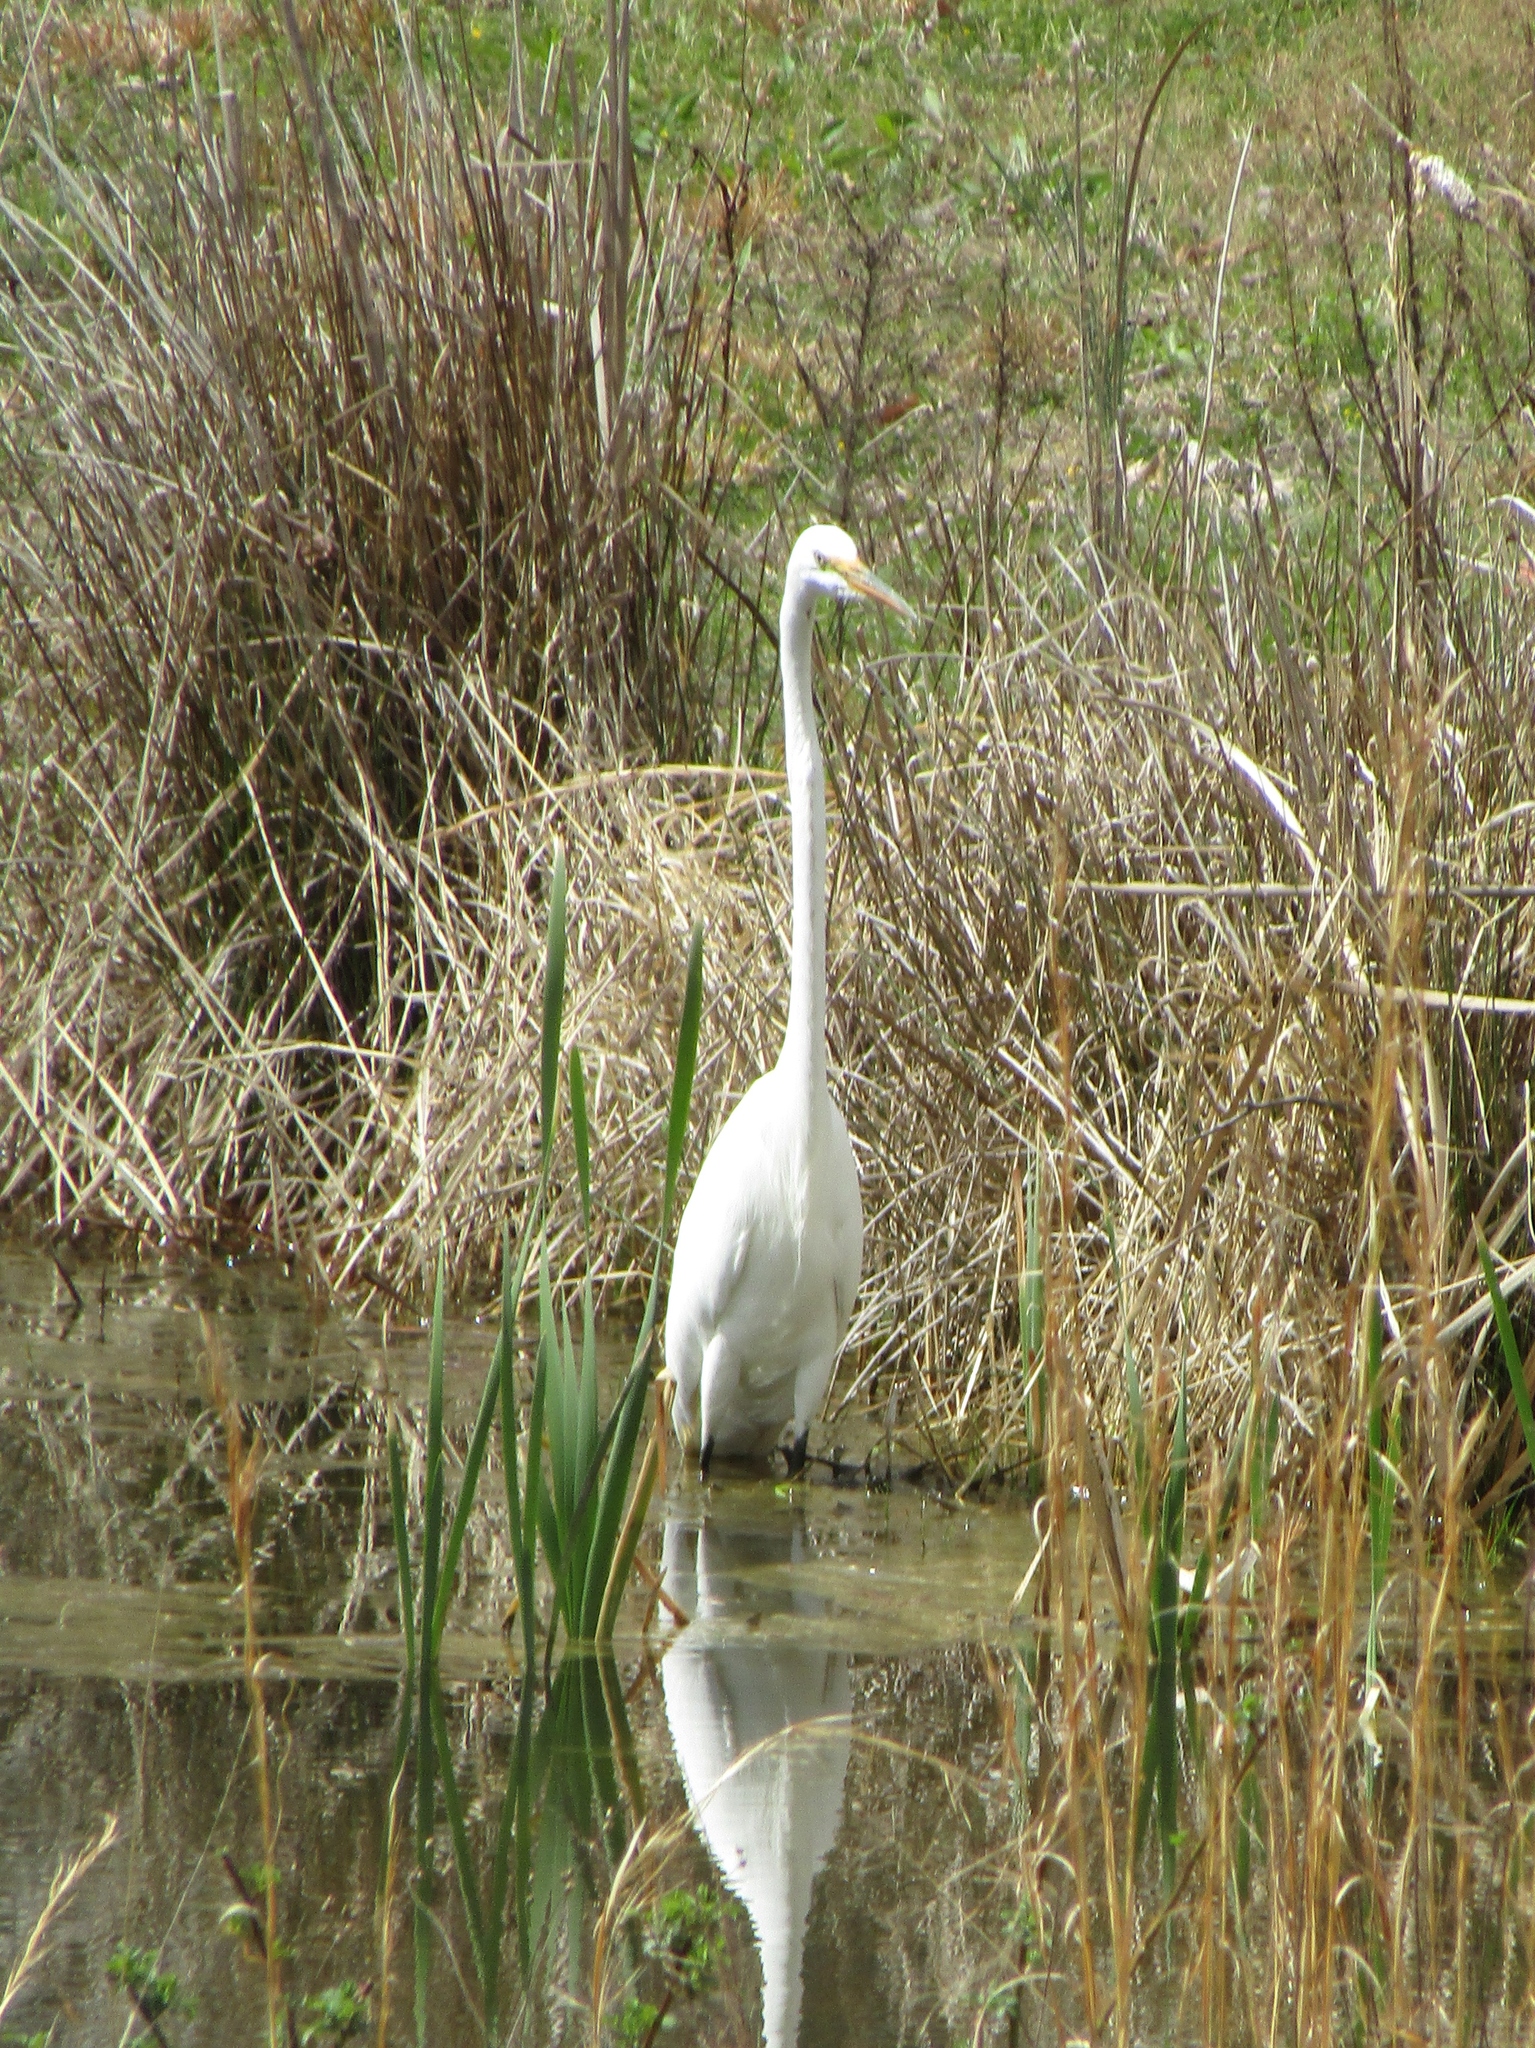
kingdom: Animalia
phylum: Chordata
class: Aves
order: Pelecaniformes
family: Ardeidae
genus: Ardea
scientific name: Ardea alba
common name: Great egret
